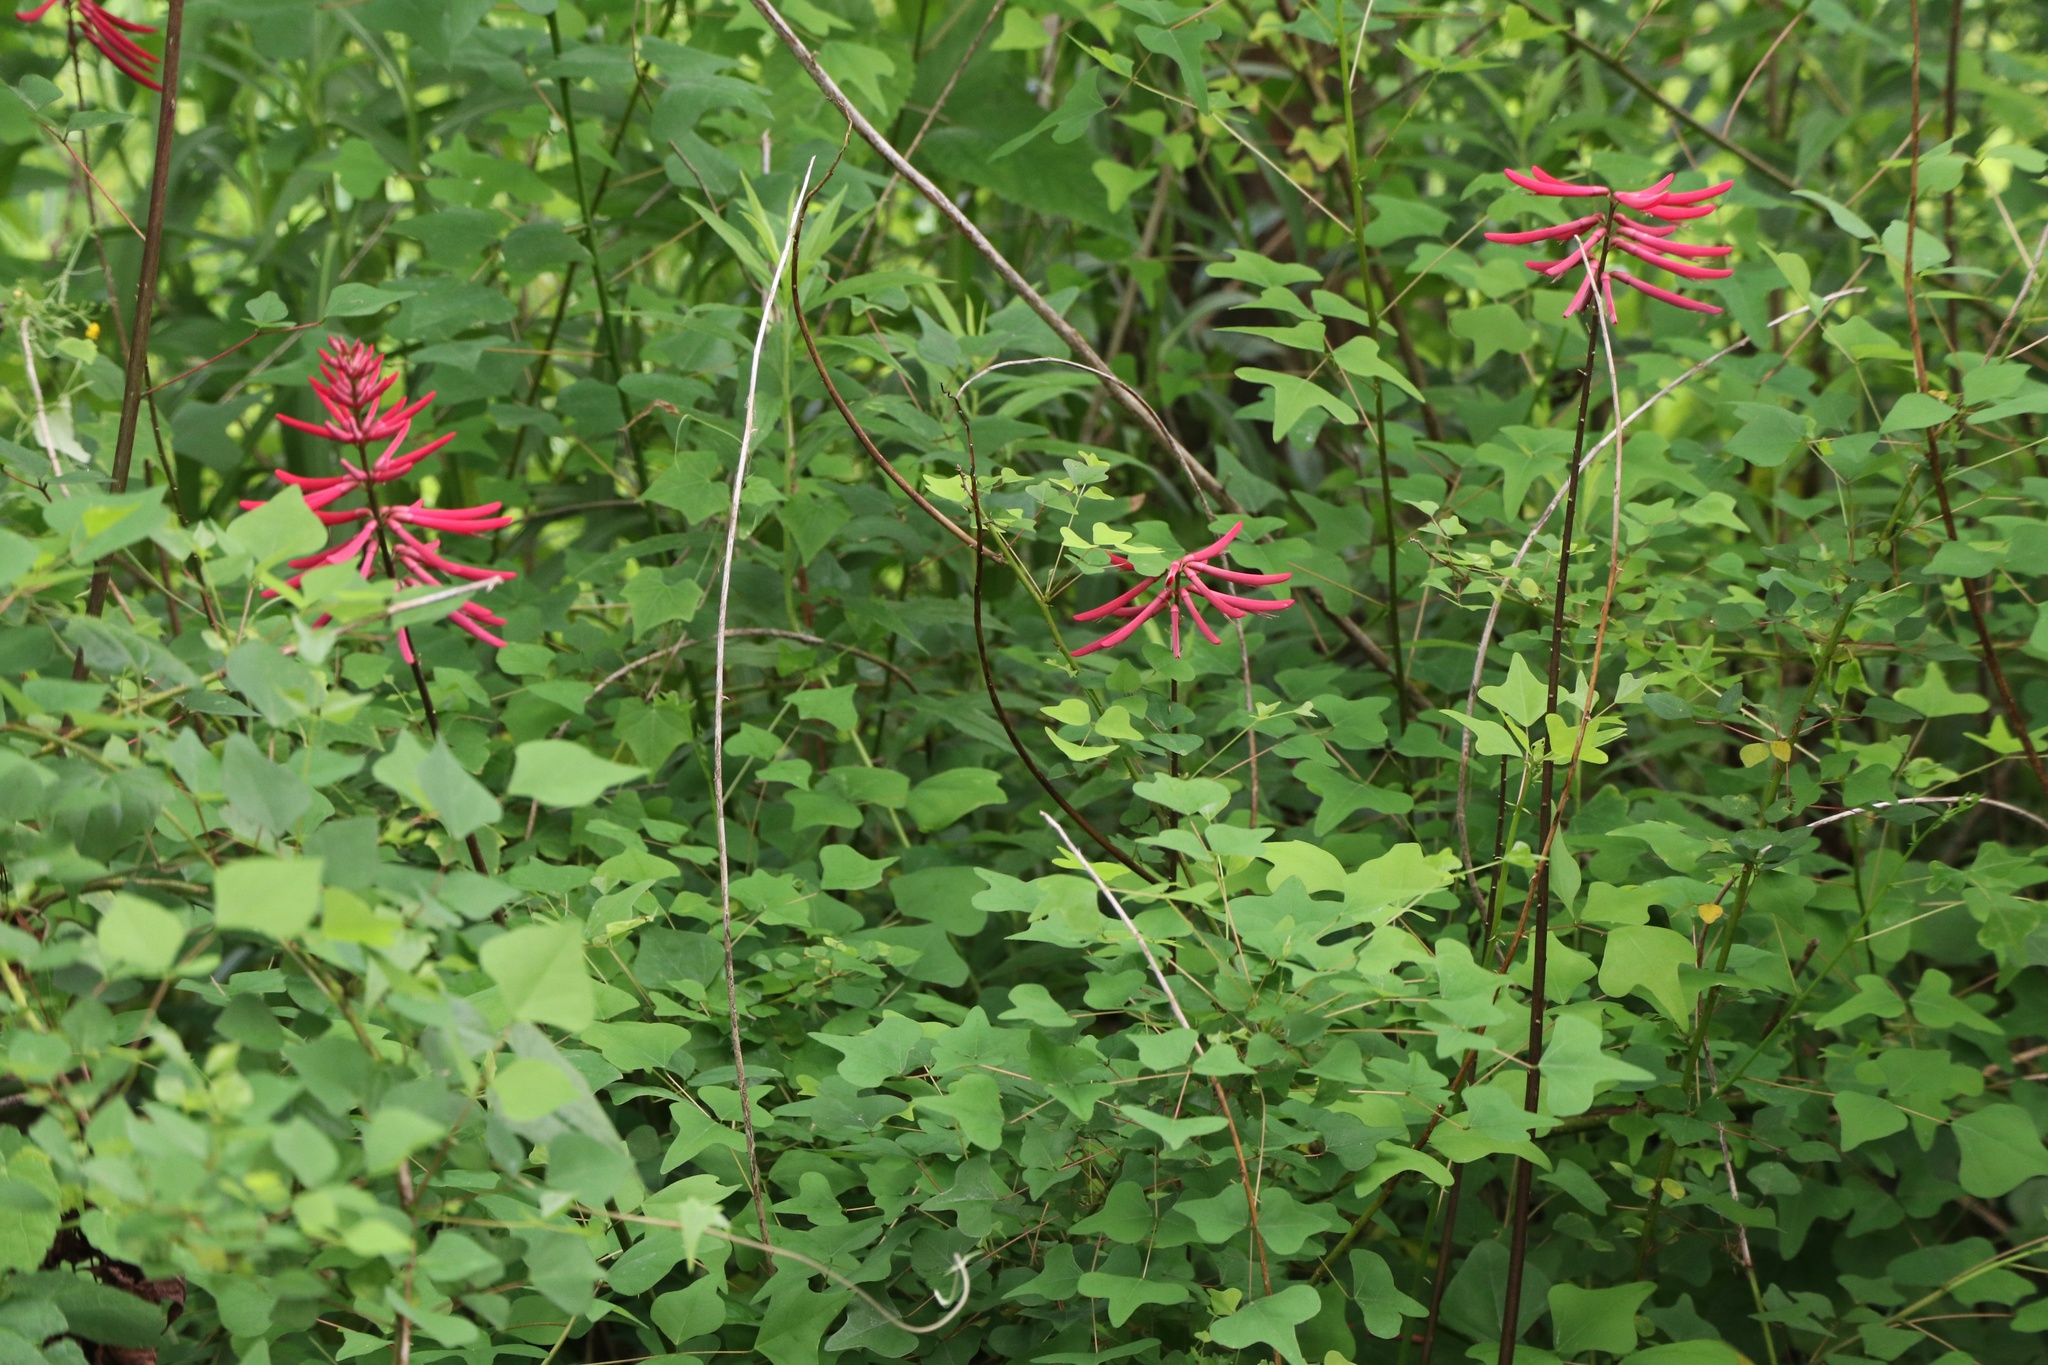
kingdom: Plantae
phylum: Tracheophyta
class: Magnoliopsida
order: Fabales
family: Fabaceae
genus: Erythrina
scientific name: Erythrina herbacea
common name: Coral-bean
